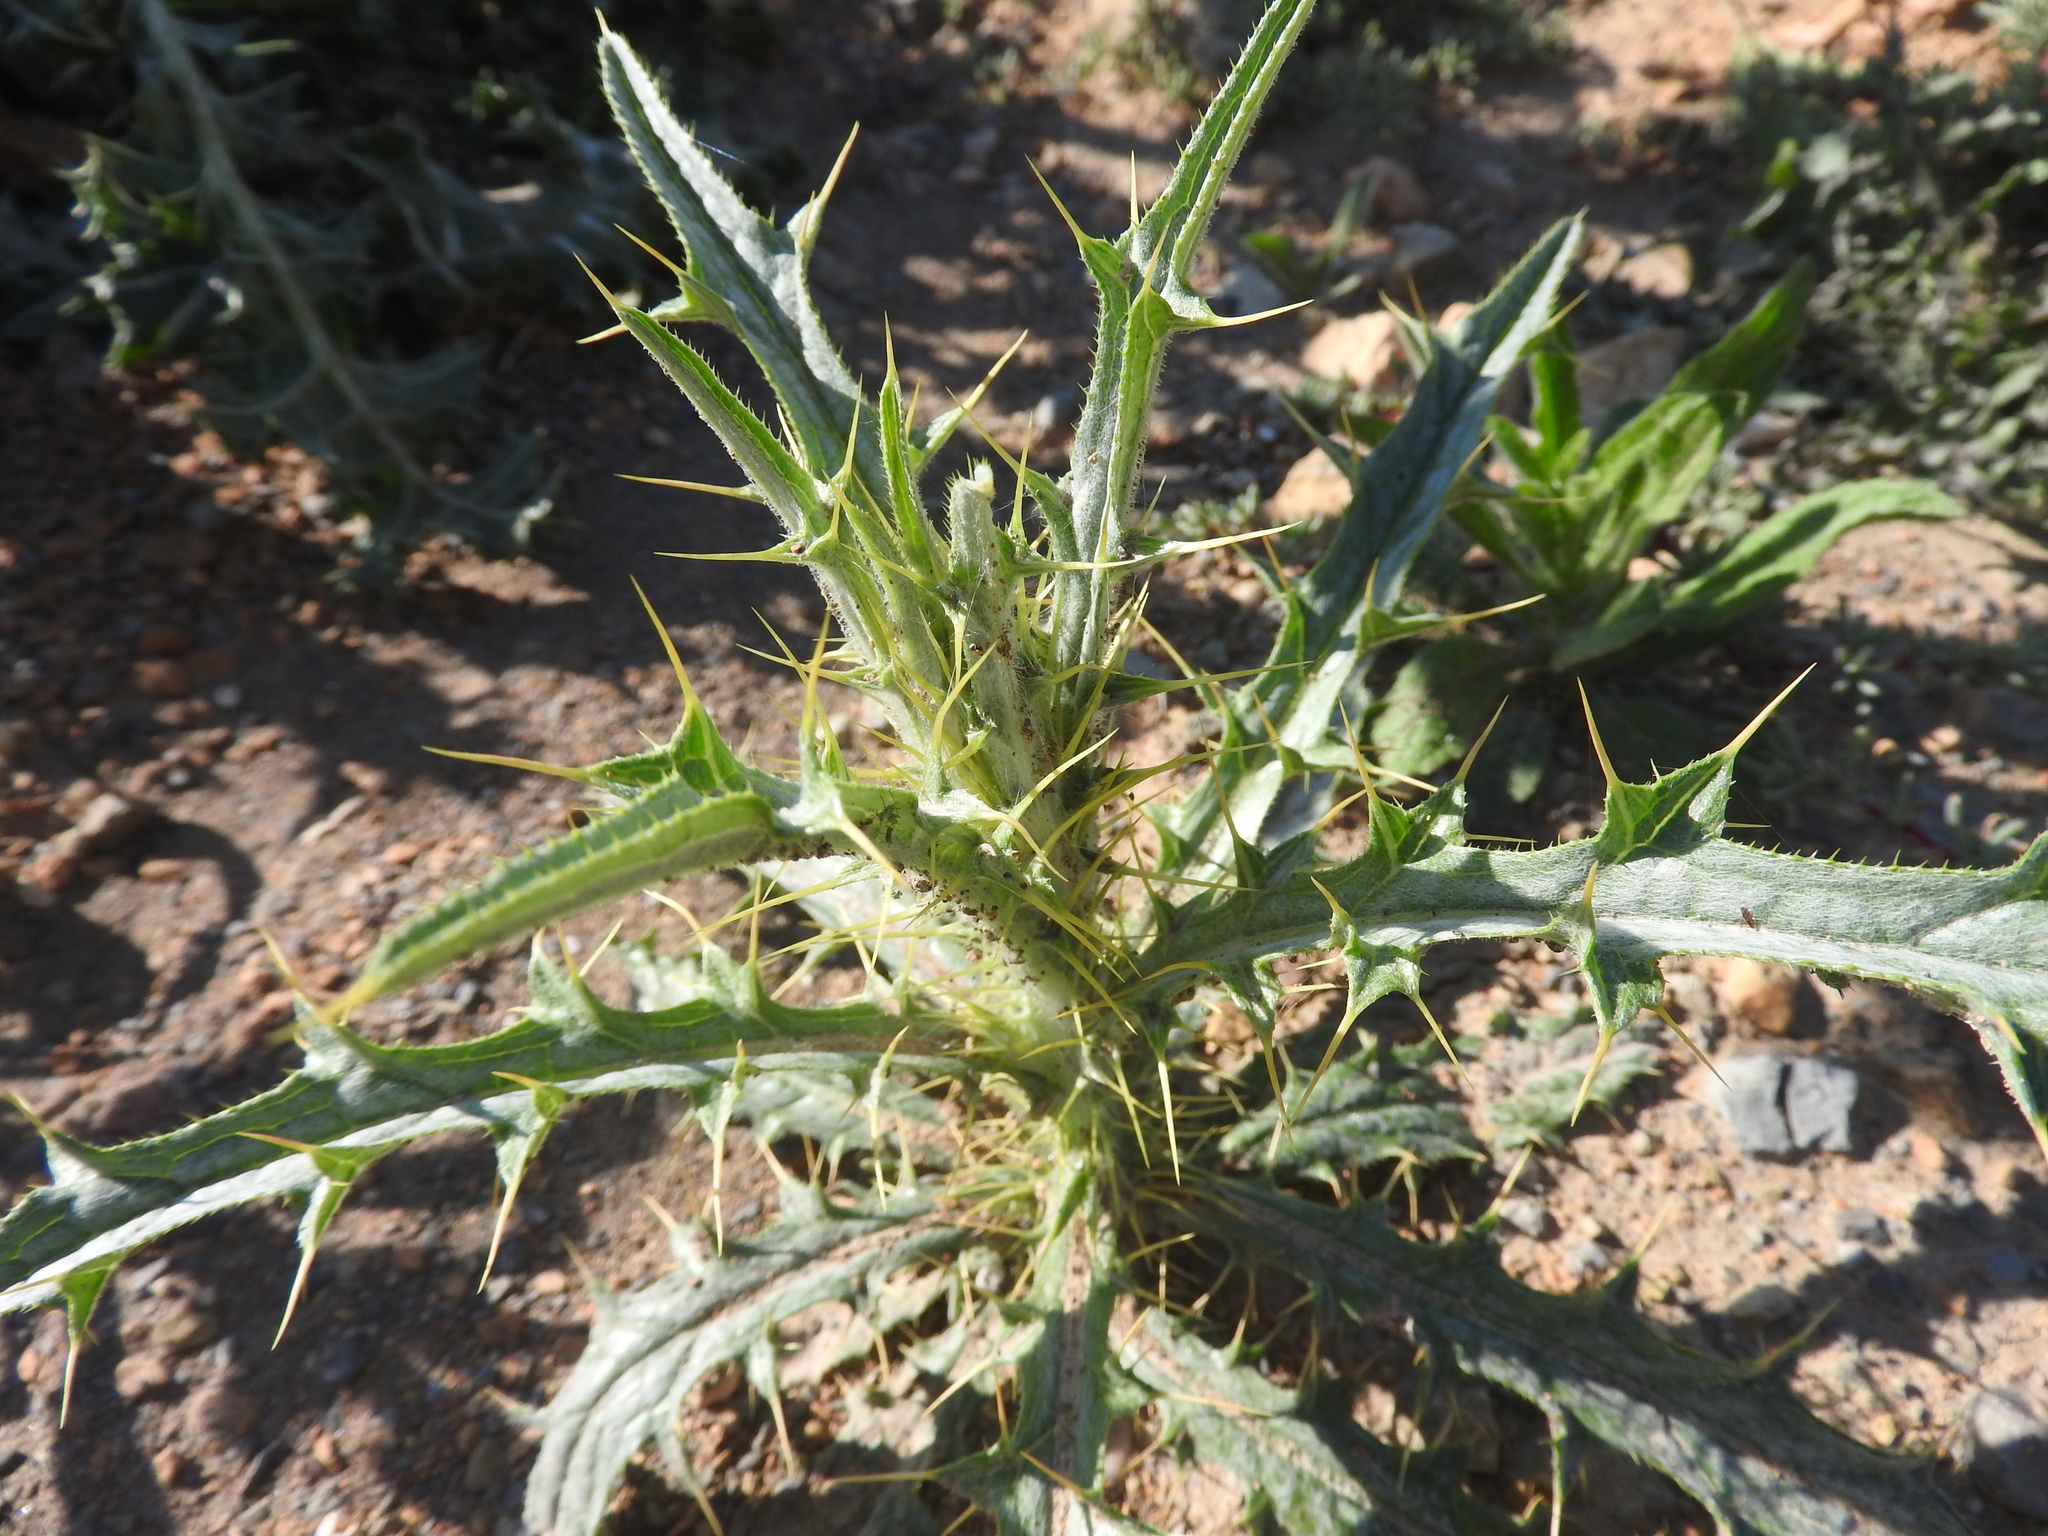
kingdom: Plantae
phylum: Tracheophyta
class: Magnoliopsida
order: Asterales
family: Asteraceae
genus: Picnomon
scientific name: Picnomon acarna
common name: Soldier thistle
